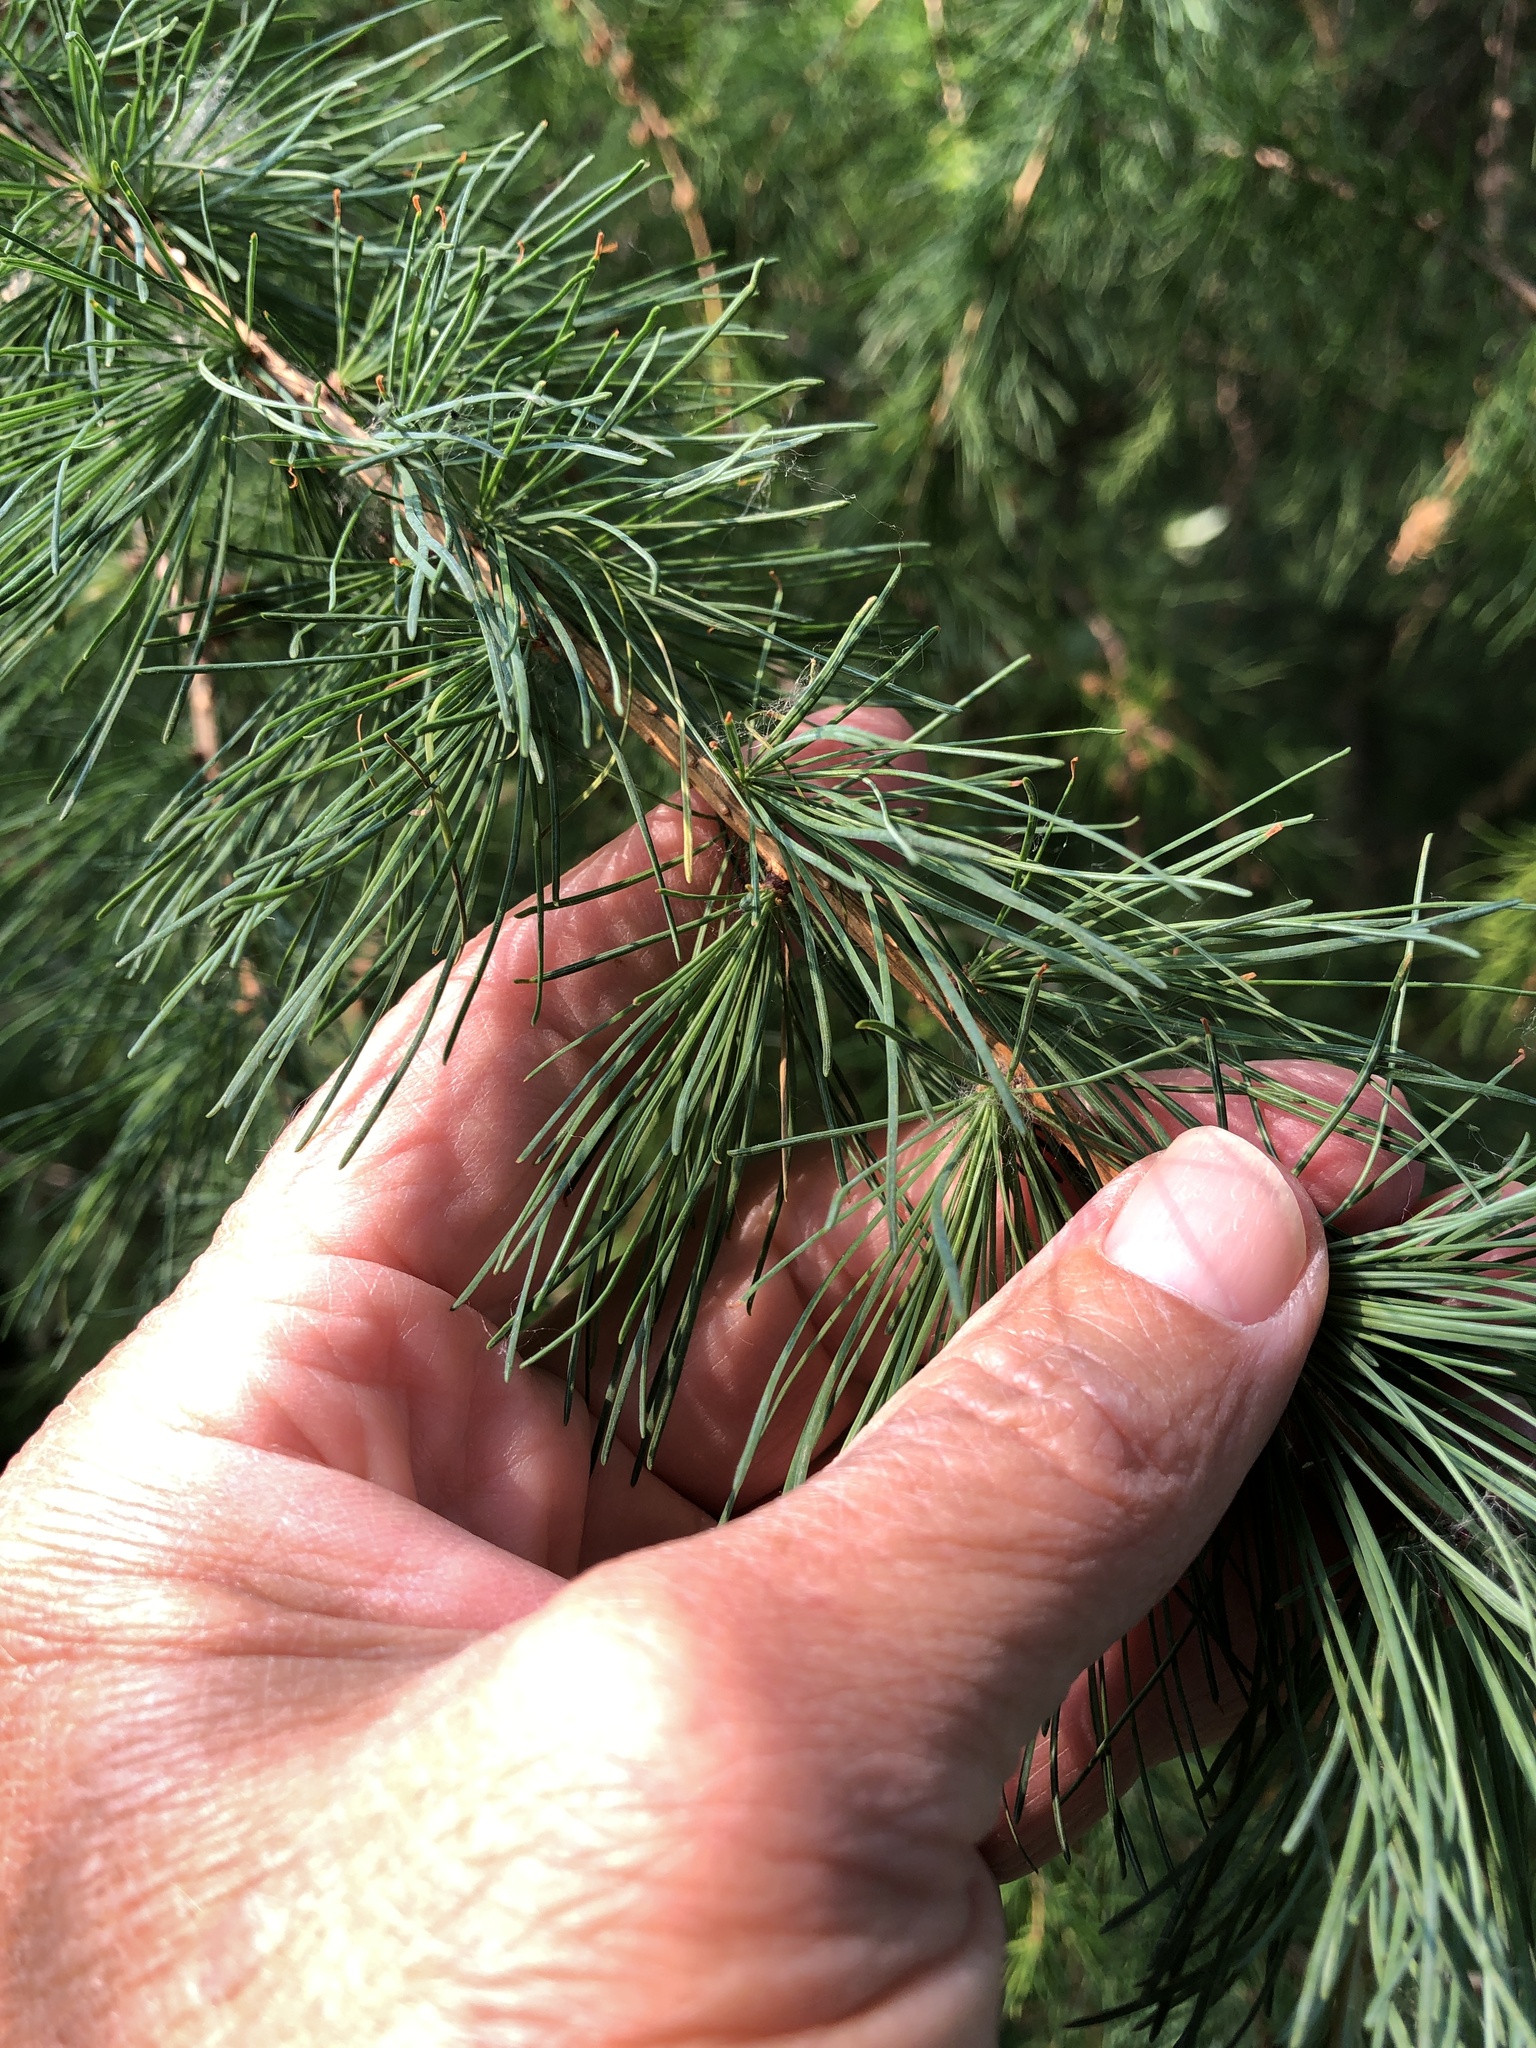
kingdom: Plantae
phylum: Tracheophyta
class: Pinopsida
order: Pinales
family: Pinaceae
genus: Larix
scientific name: Larix laricina
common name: American larch
